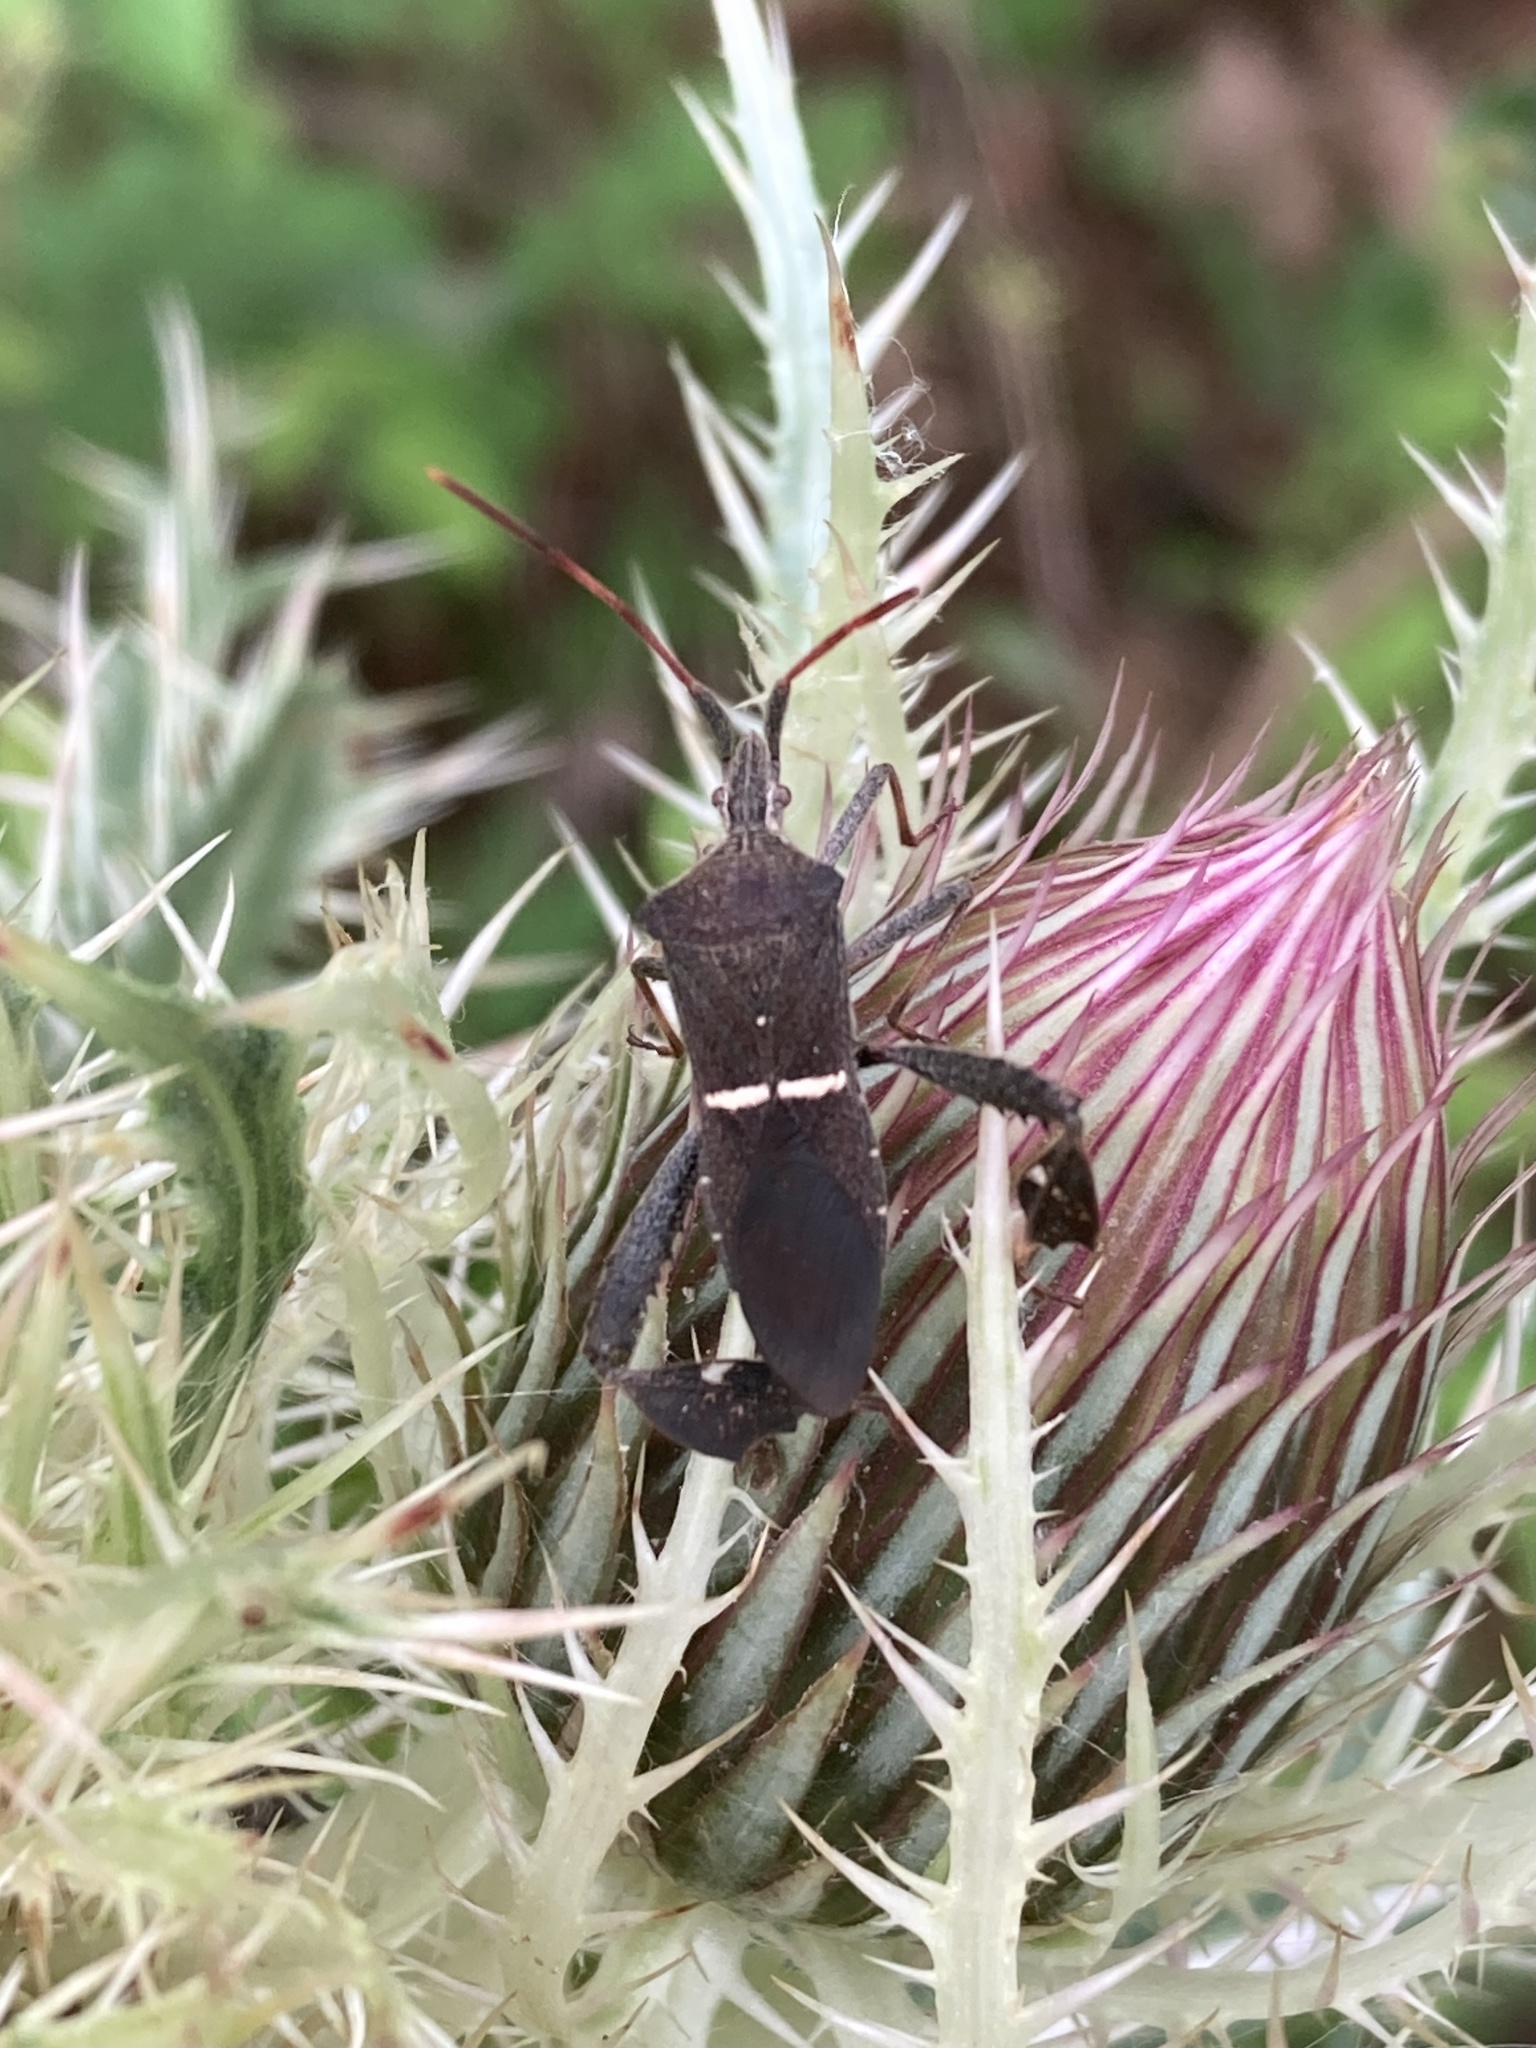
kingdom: Animalia
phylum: Arthropoda
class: Insecta
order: Hemiptera
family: Coreidae
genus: Leptoglossus
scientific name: Leptoglossus phyllopus
